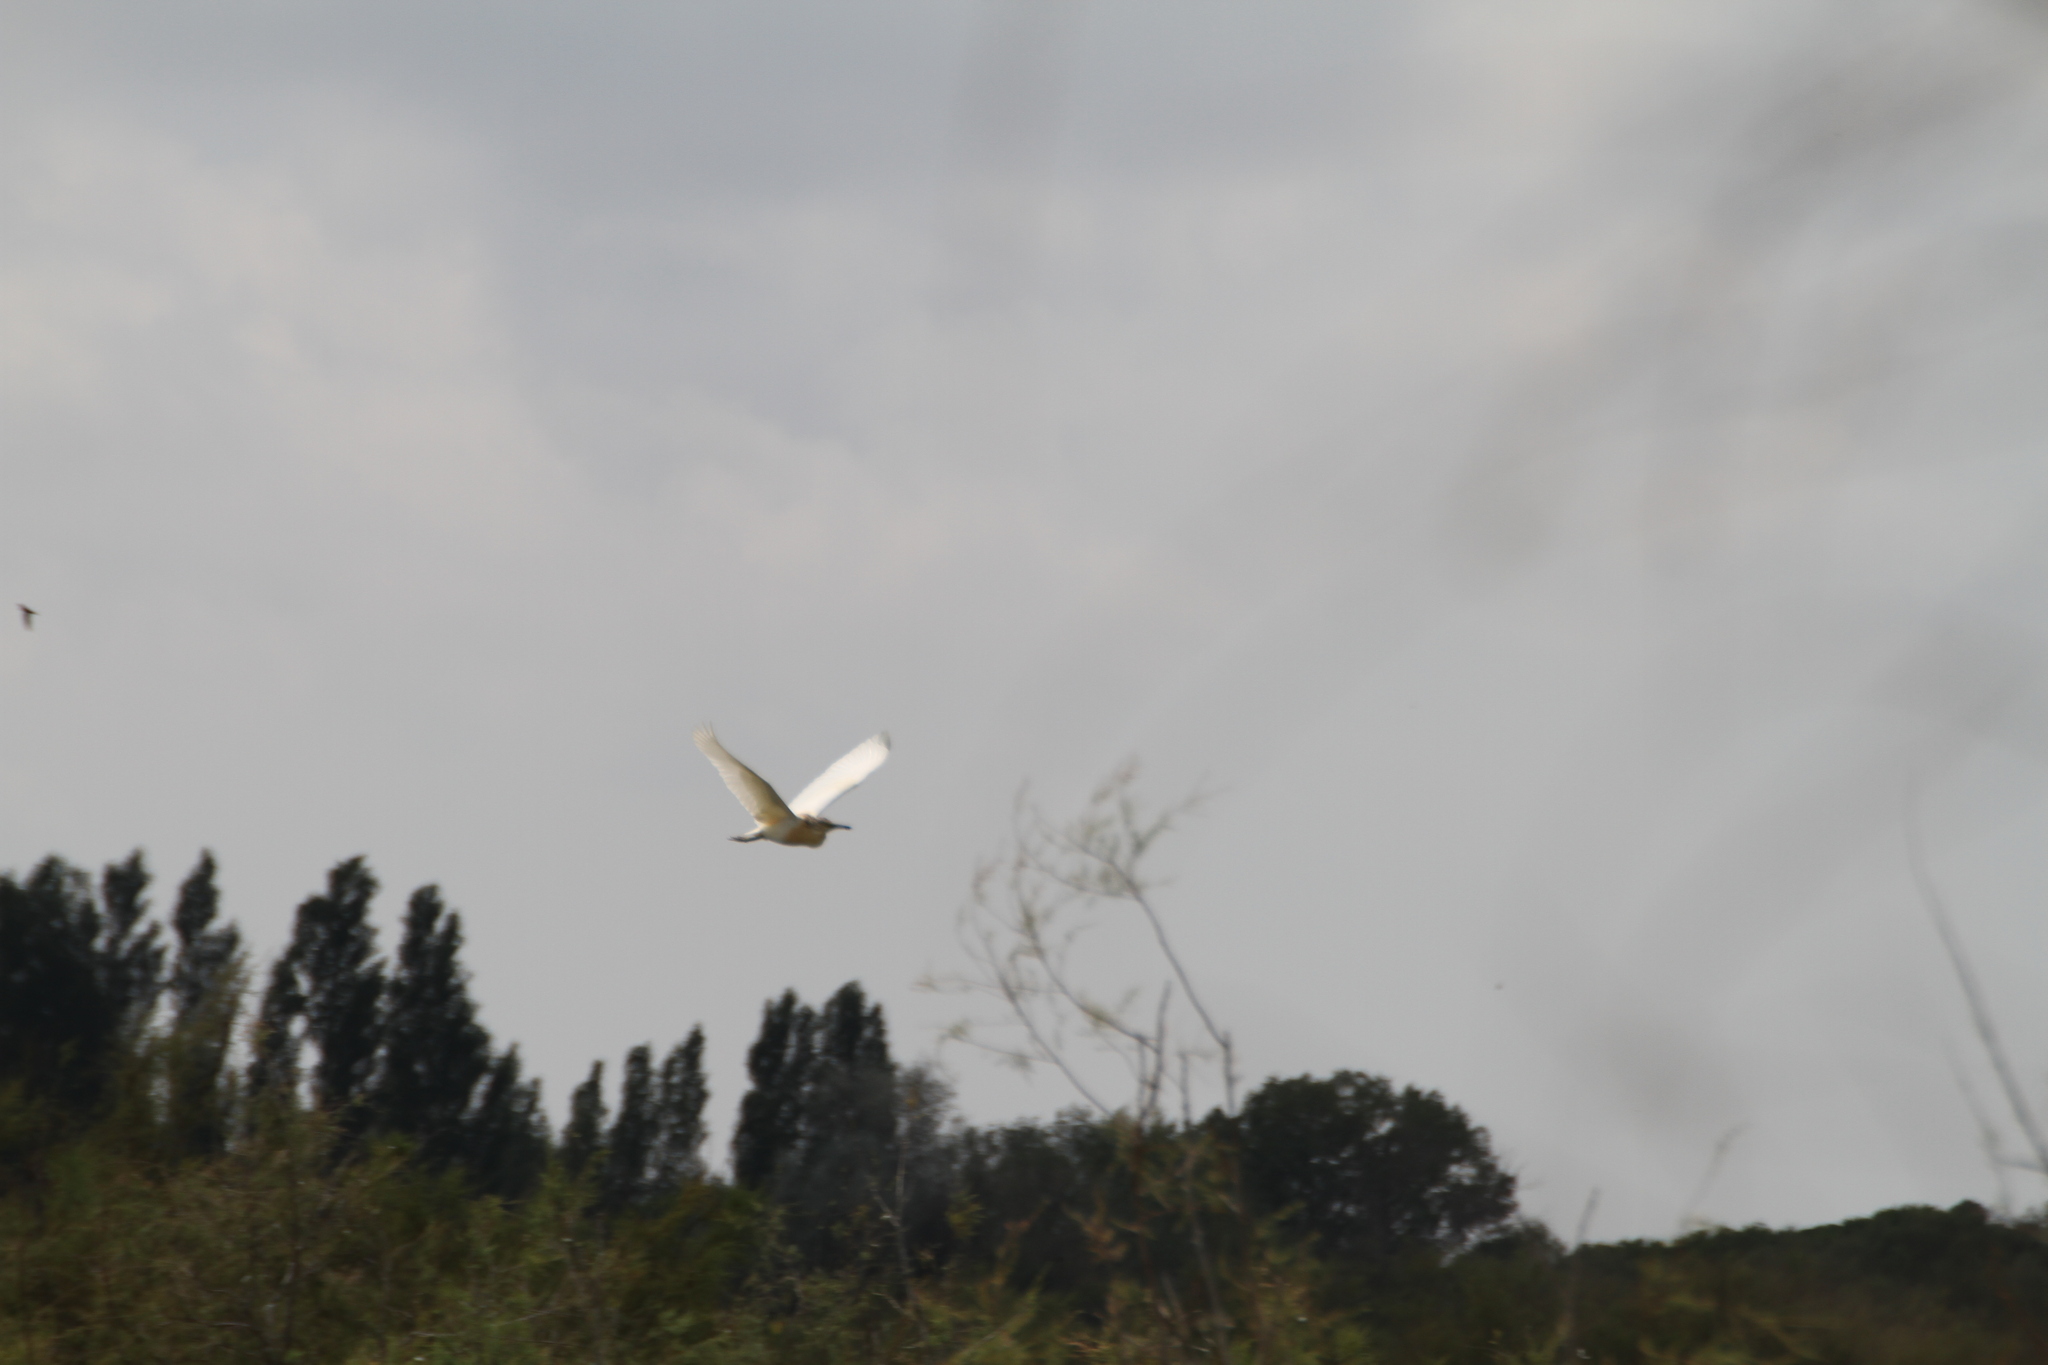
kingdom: Animalia
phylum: Chordata
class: Aves
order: Pelecaniformes
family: Ardeidae
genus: Ardeola
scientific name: Ardeola ralloides
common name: Squacco heron
